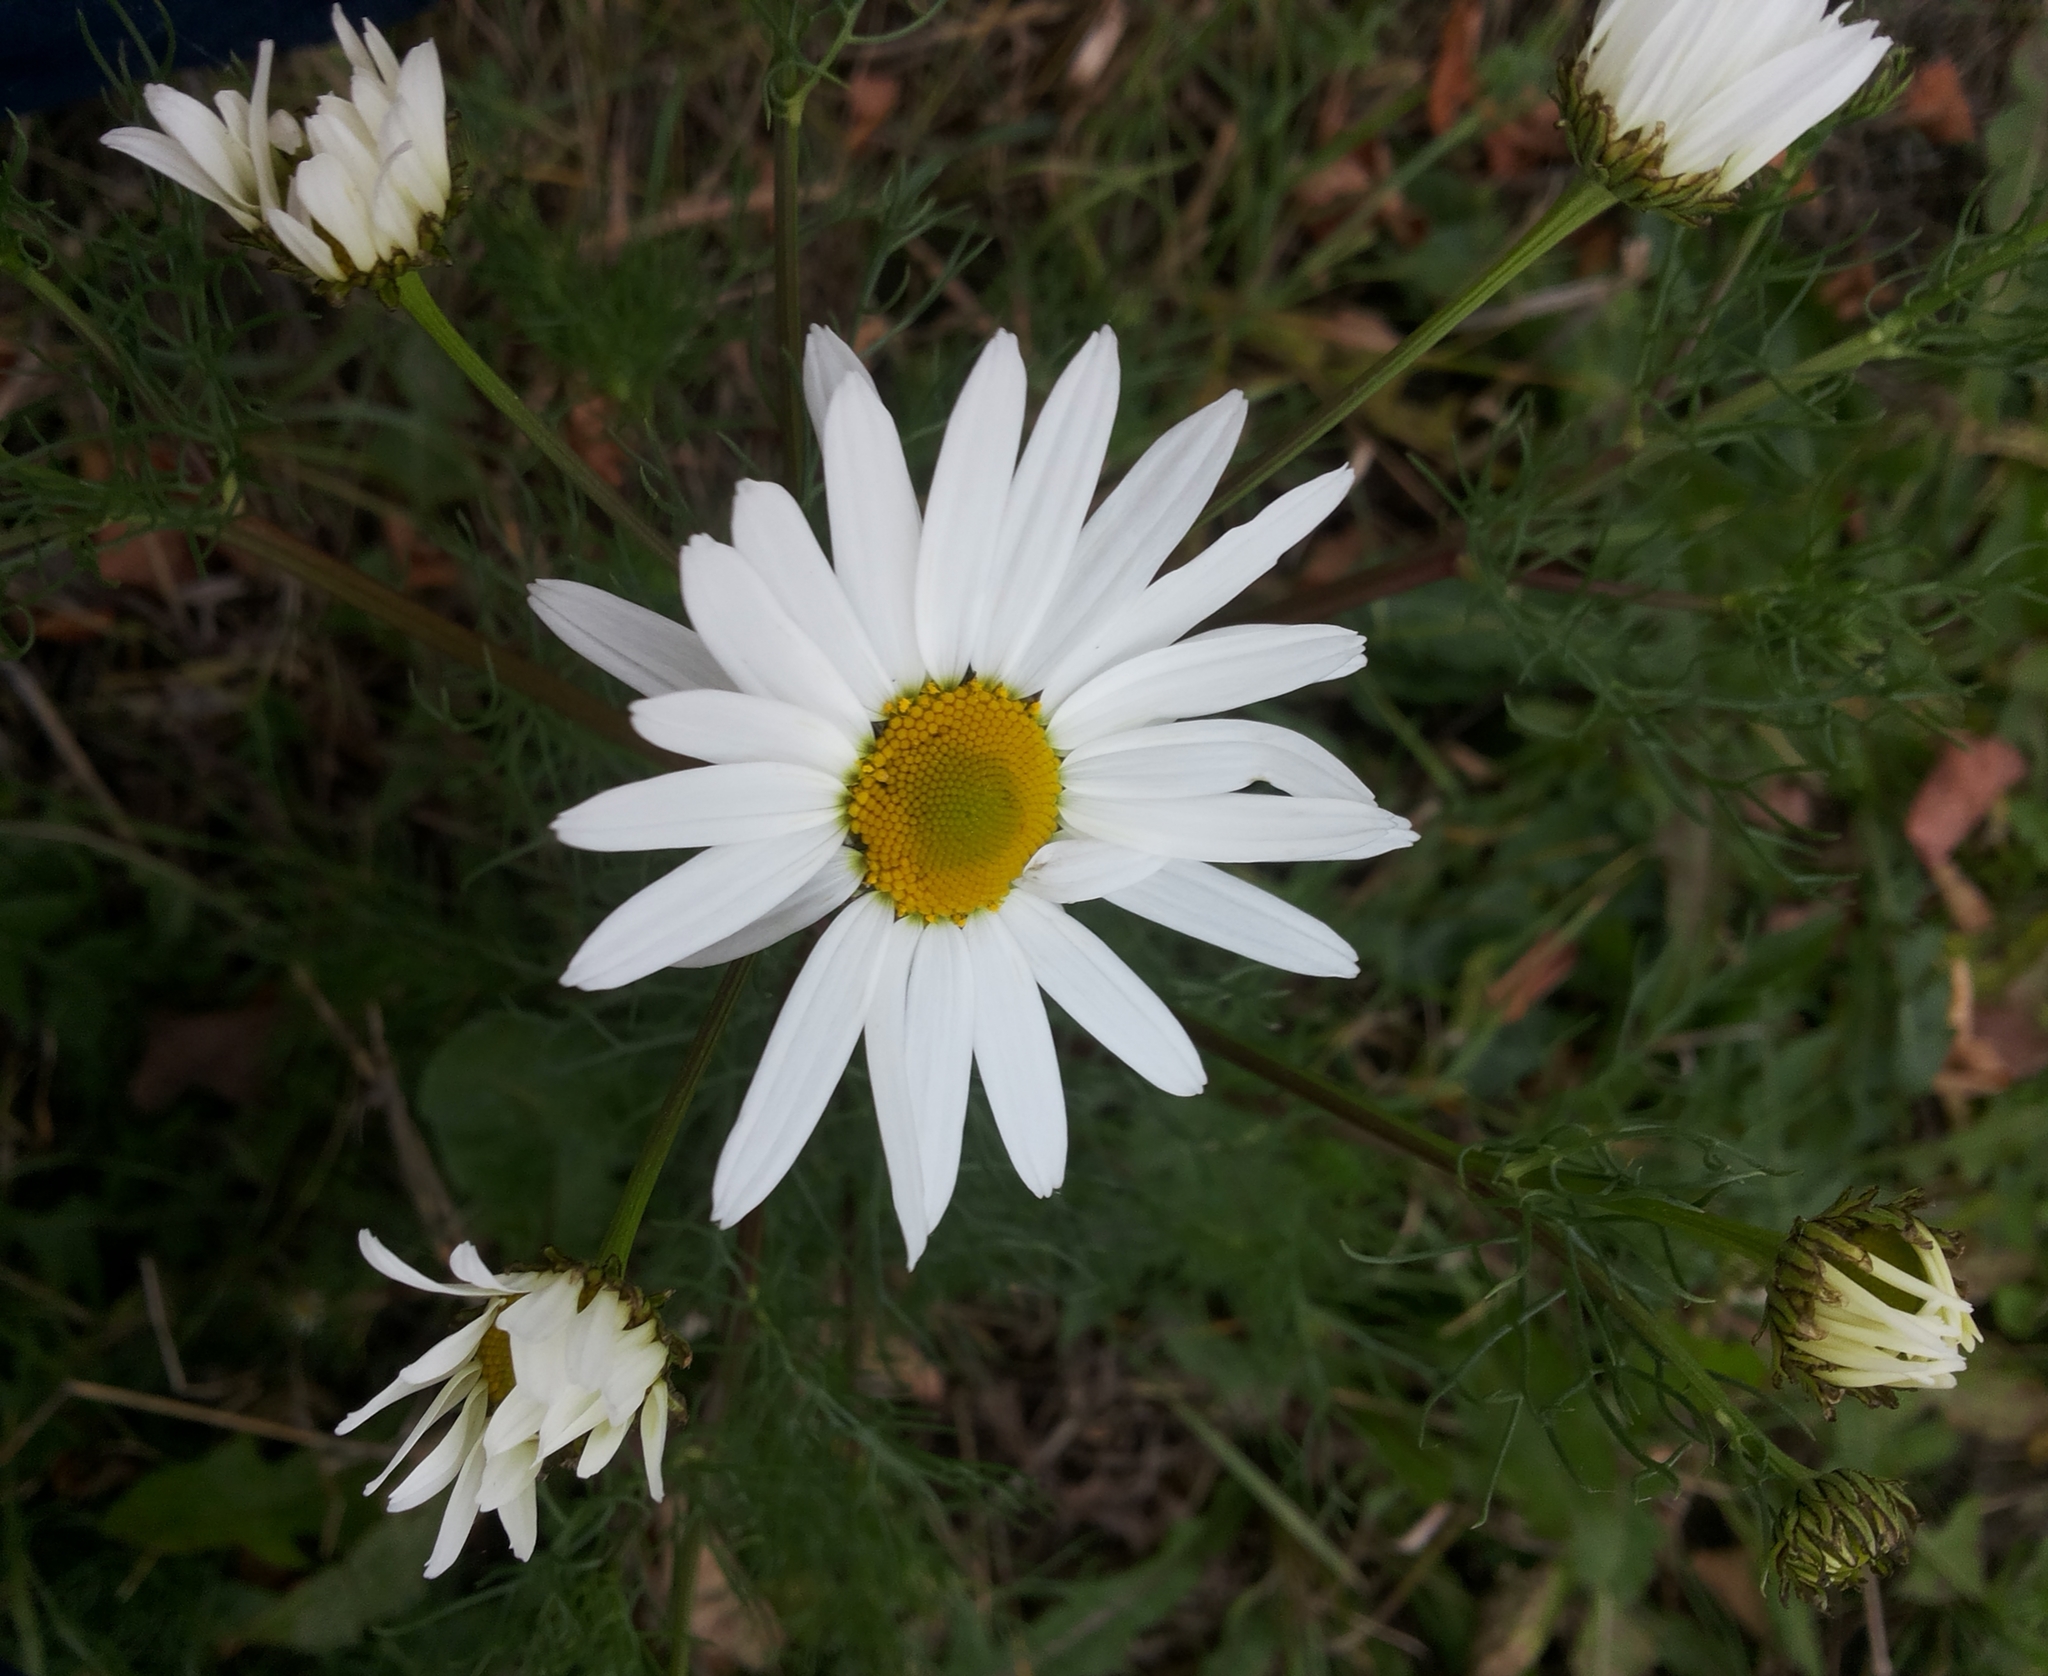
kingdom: Plantae
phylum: Tracheophyta
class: Magnoliopsida
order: Asterales
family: Asteraceae
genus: Tripleurospermum
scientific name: Tripleurospermum inodorum
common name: Scentless mayweed
